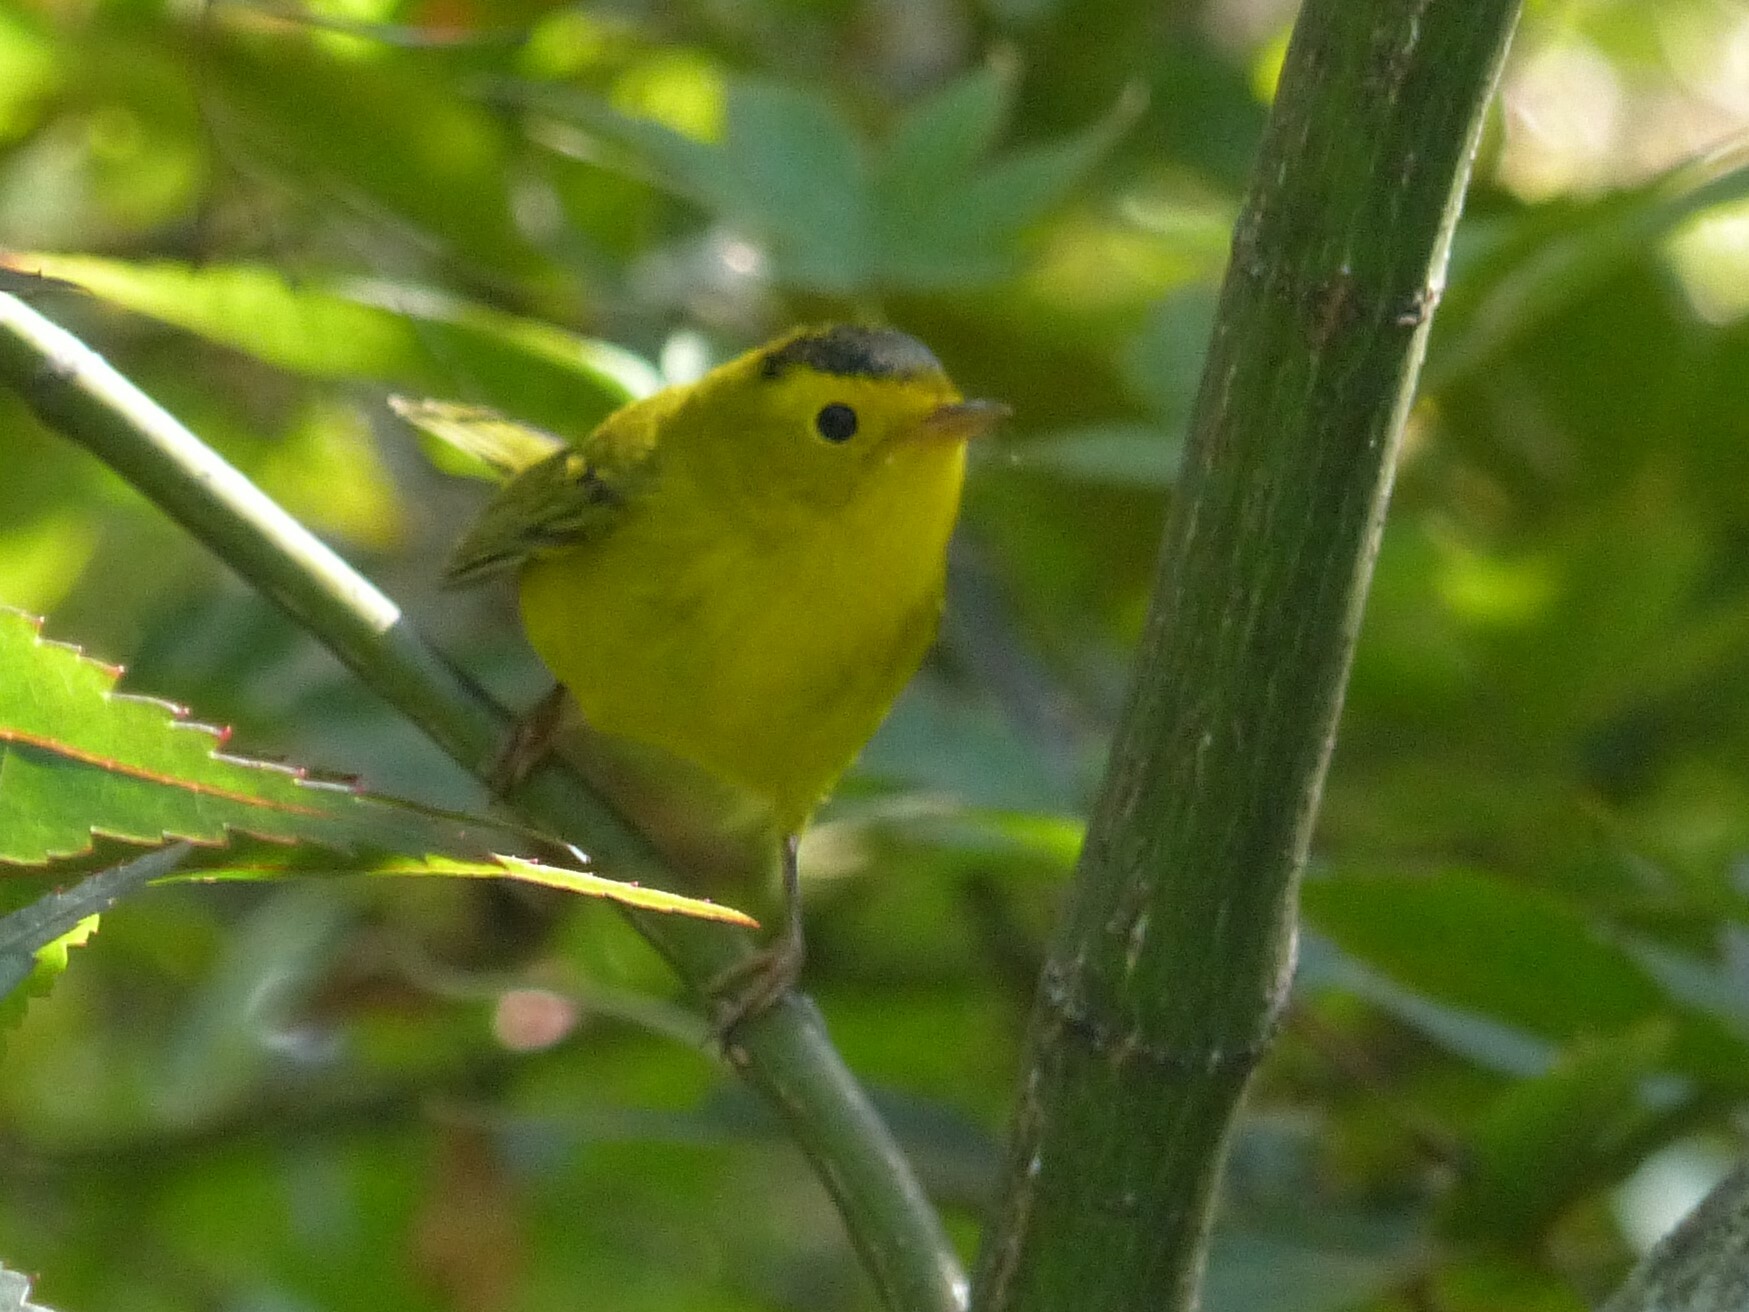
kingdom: Animalia
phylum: Chordata
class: Aves
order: Passeriformes
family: Parulidae
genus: Cardellina
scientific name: Cardellina pusilla
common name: Wilson's warbler
